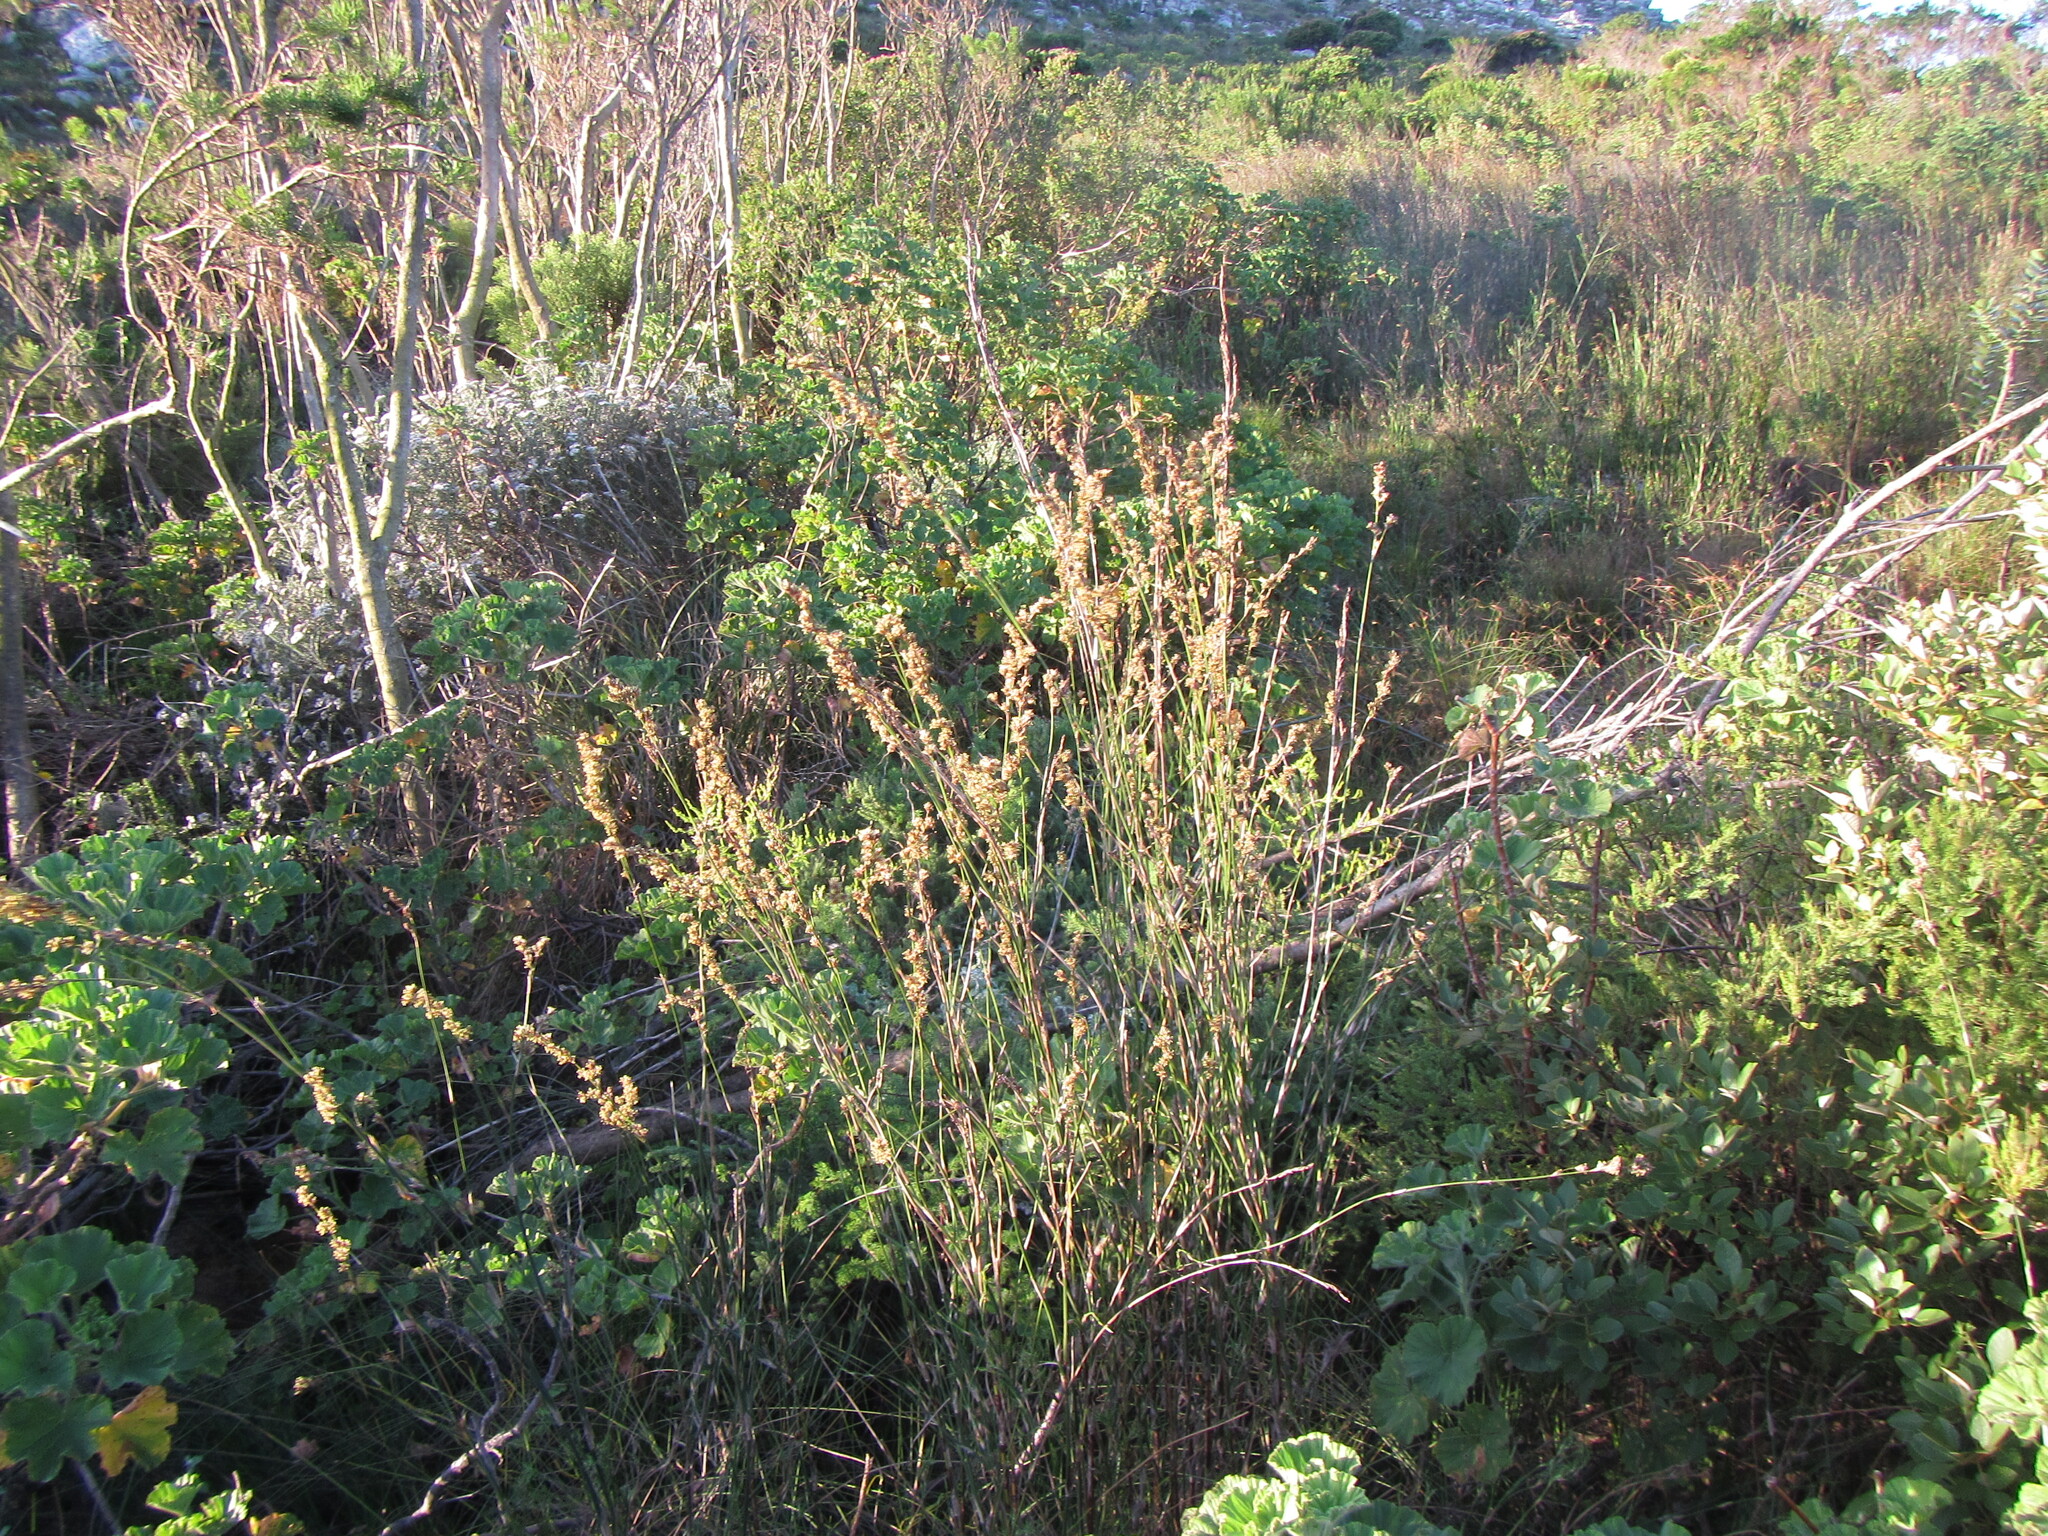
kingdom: Plantae
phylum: Tracheophyta
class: Liliopsida
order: Poales
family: Restionaceae
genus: Restio
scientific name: Restio tetragonus
